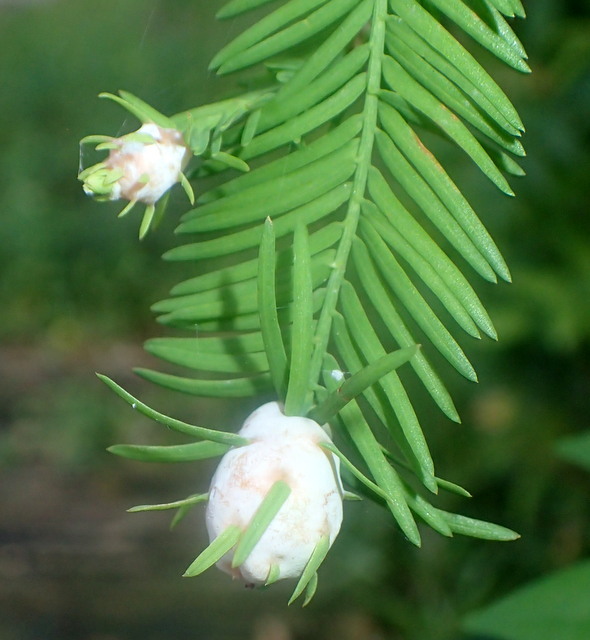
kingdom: Animalia
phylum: Arthropoda
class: Insecta
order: Diptera
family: Cecidomyiidae
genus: Taxodiomyia
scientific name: Taxodiomyia cupressiananassa
